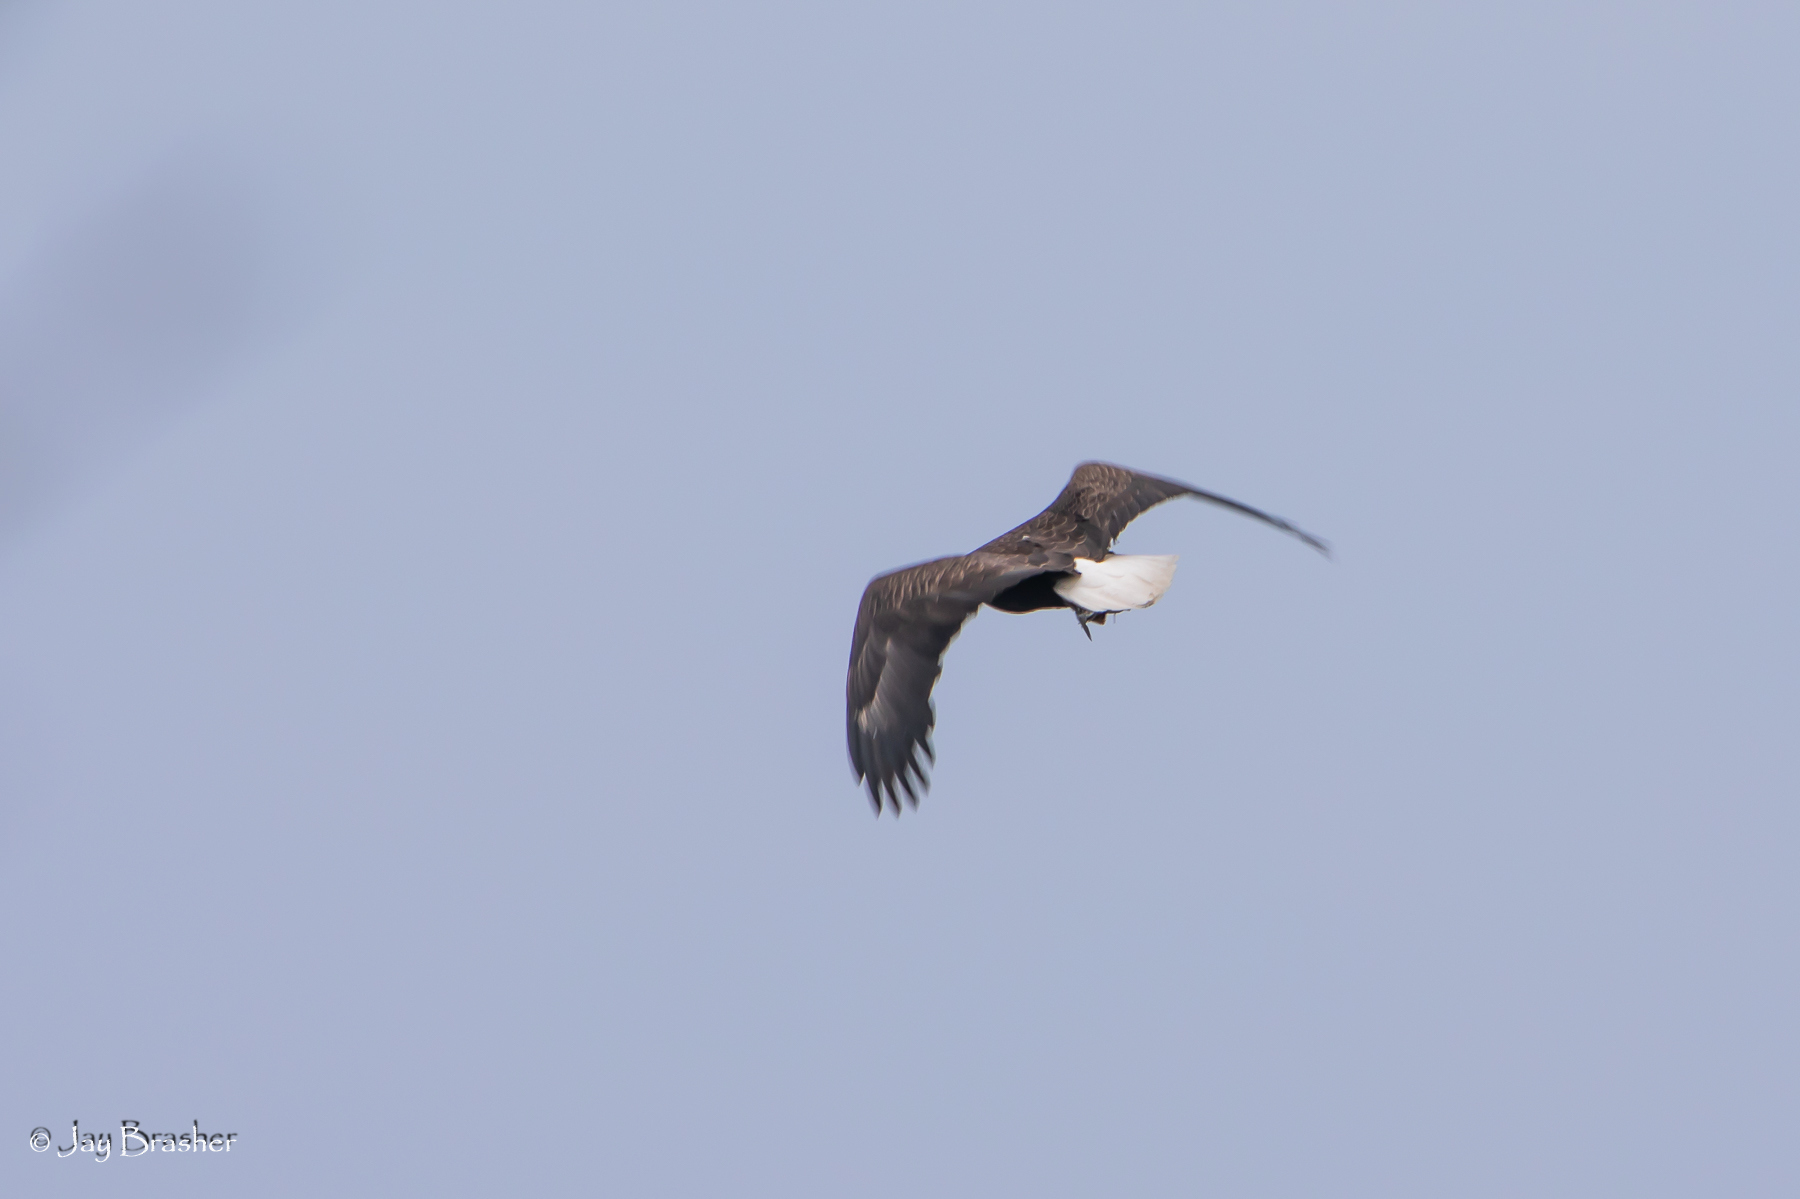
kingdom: Animalia
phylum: Chordata
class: Aves
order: Accipitriformes
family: Accipitridae
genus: Haliaeetus
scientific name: Haliaeetus leucocephalus
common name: Bald eagle
